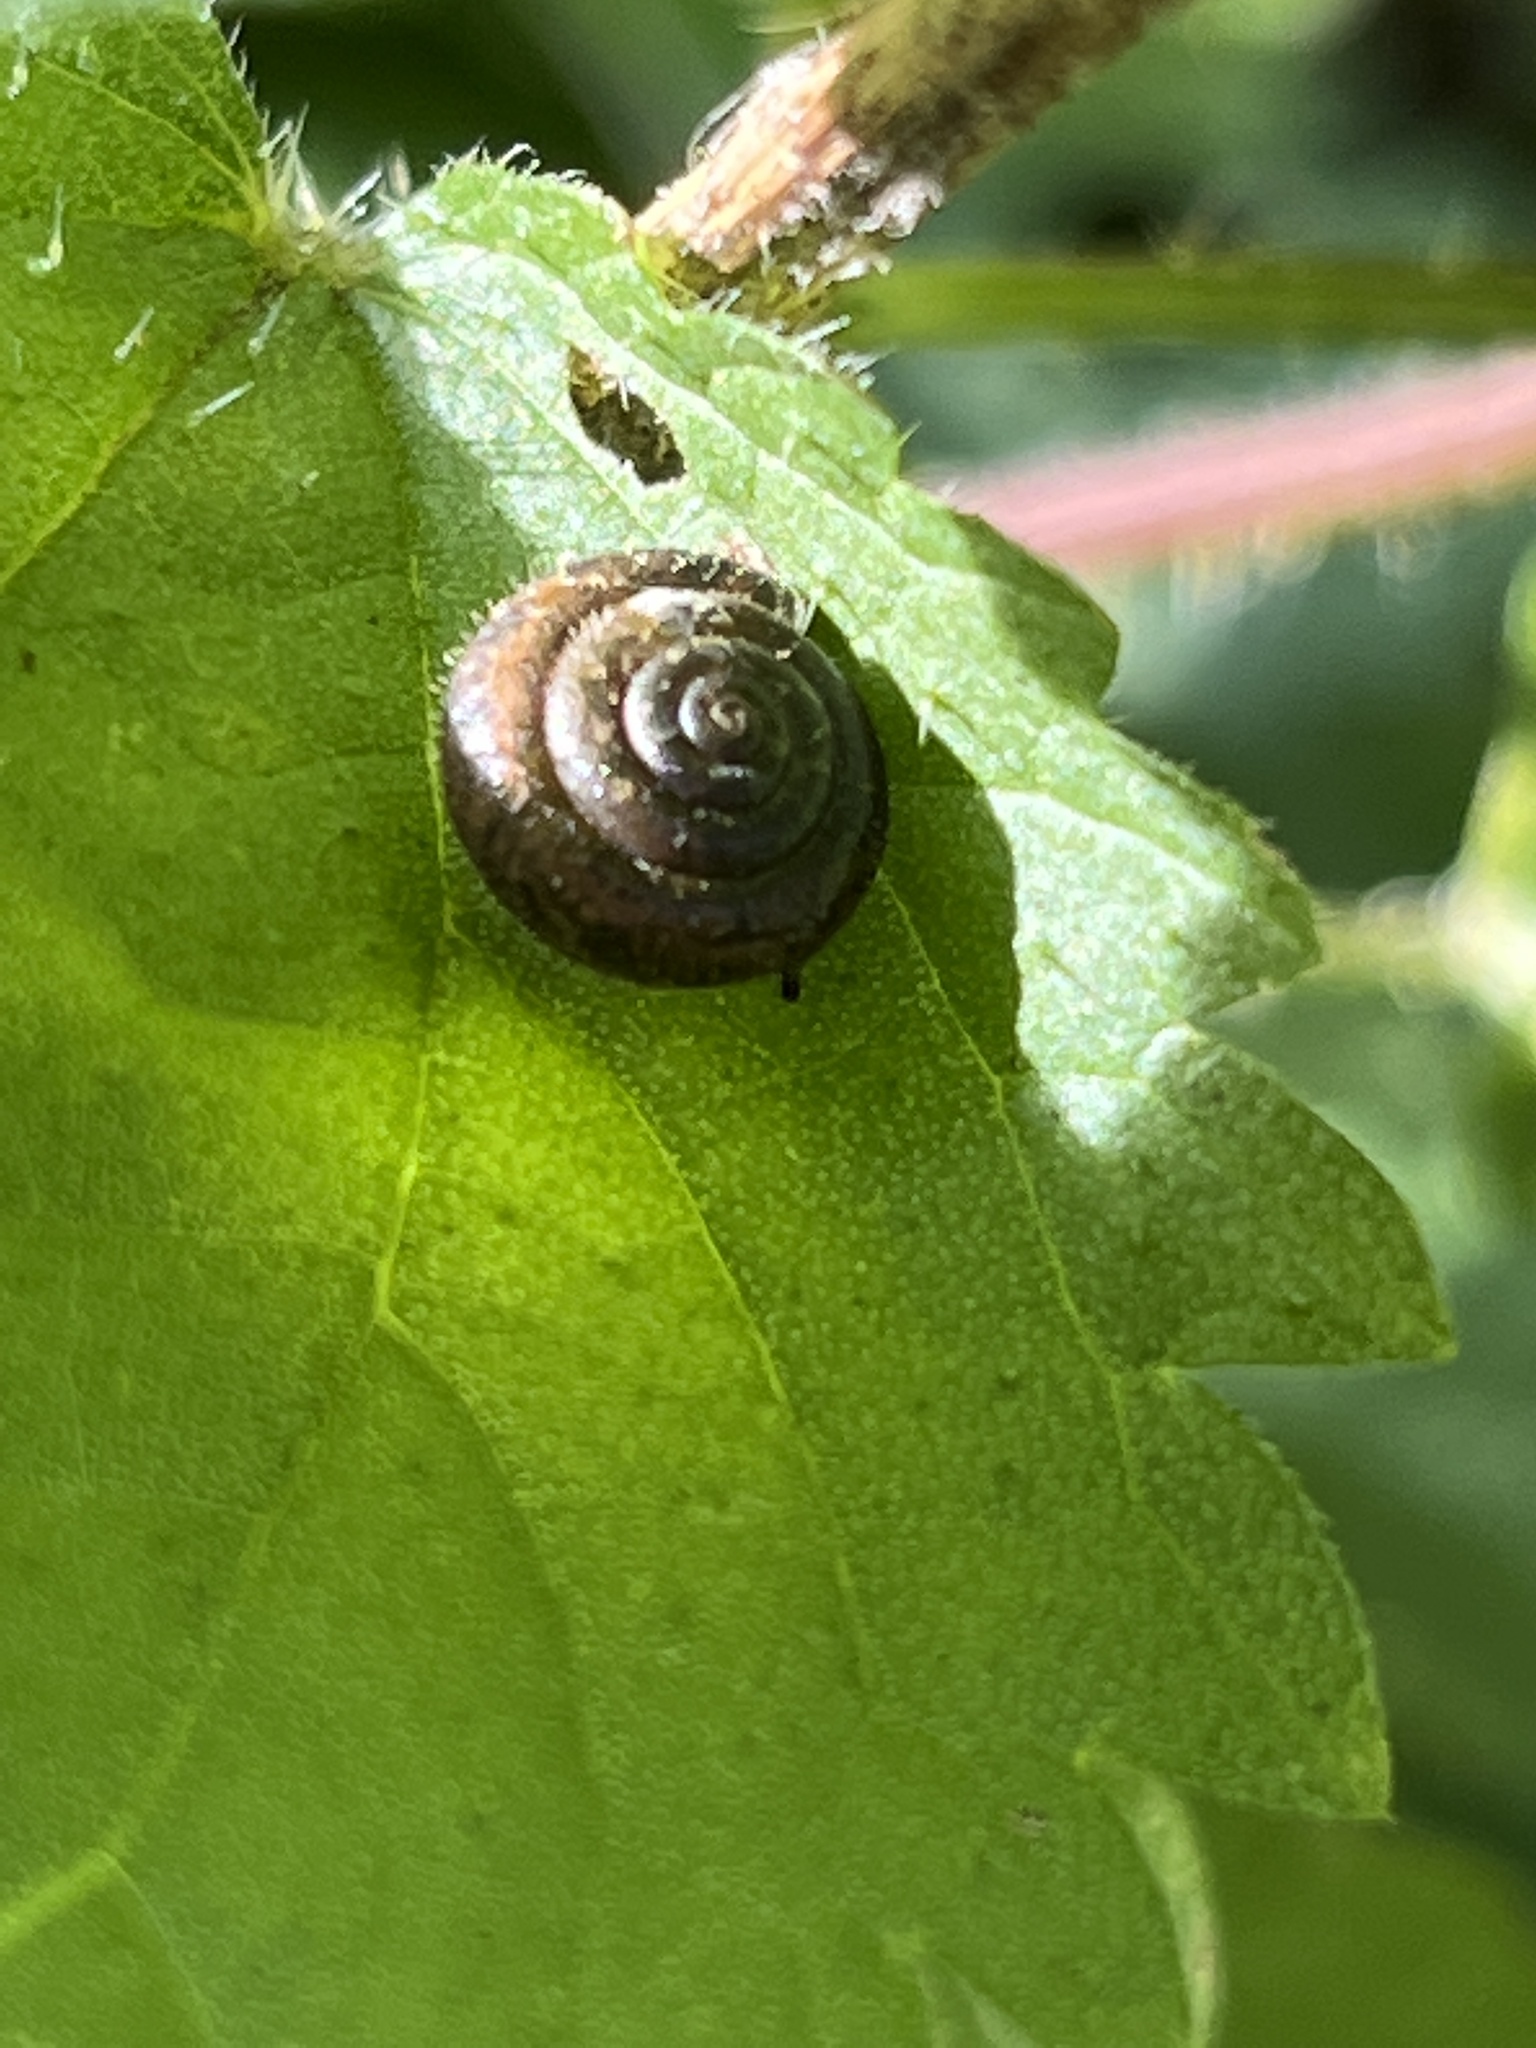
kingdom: Animalia
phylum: Mollusca
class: Gastropoda
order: Stylommatophora
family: Hygromiidae
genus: Trochulus
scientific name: Trochulus hispidus
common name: Hairy snail
